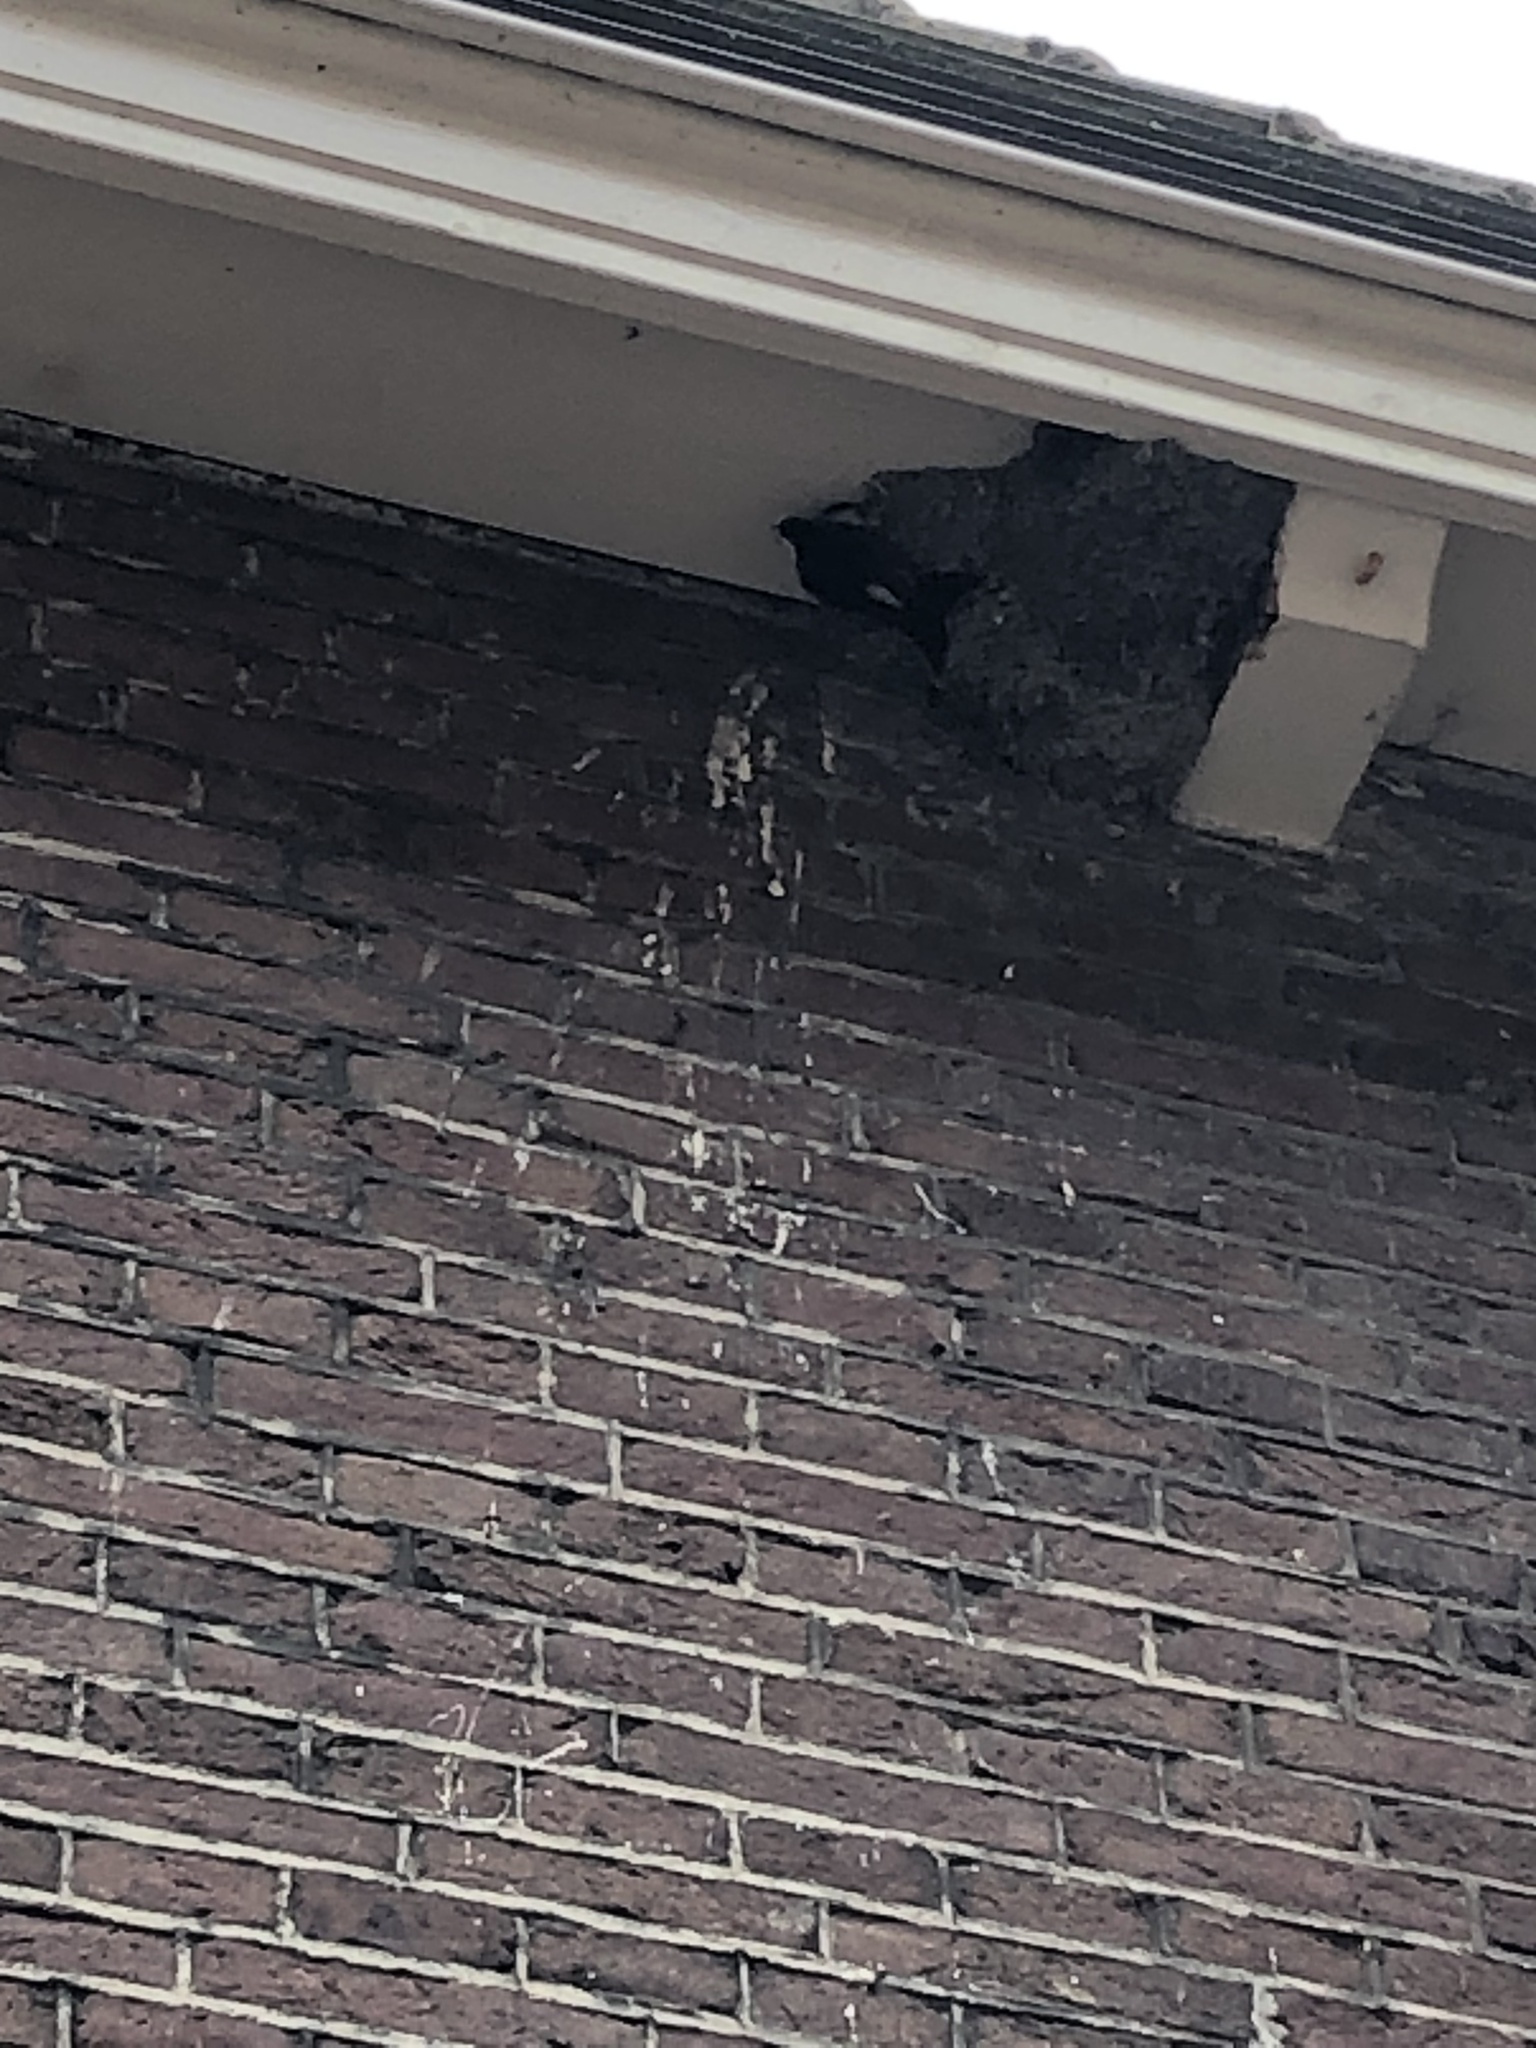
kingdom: Animalia
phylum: Chordata
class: Aves
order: Passeriformes
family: Hirundinidae
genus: Delichon
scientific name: Delichon urbicum
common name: Common house martin
